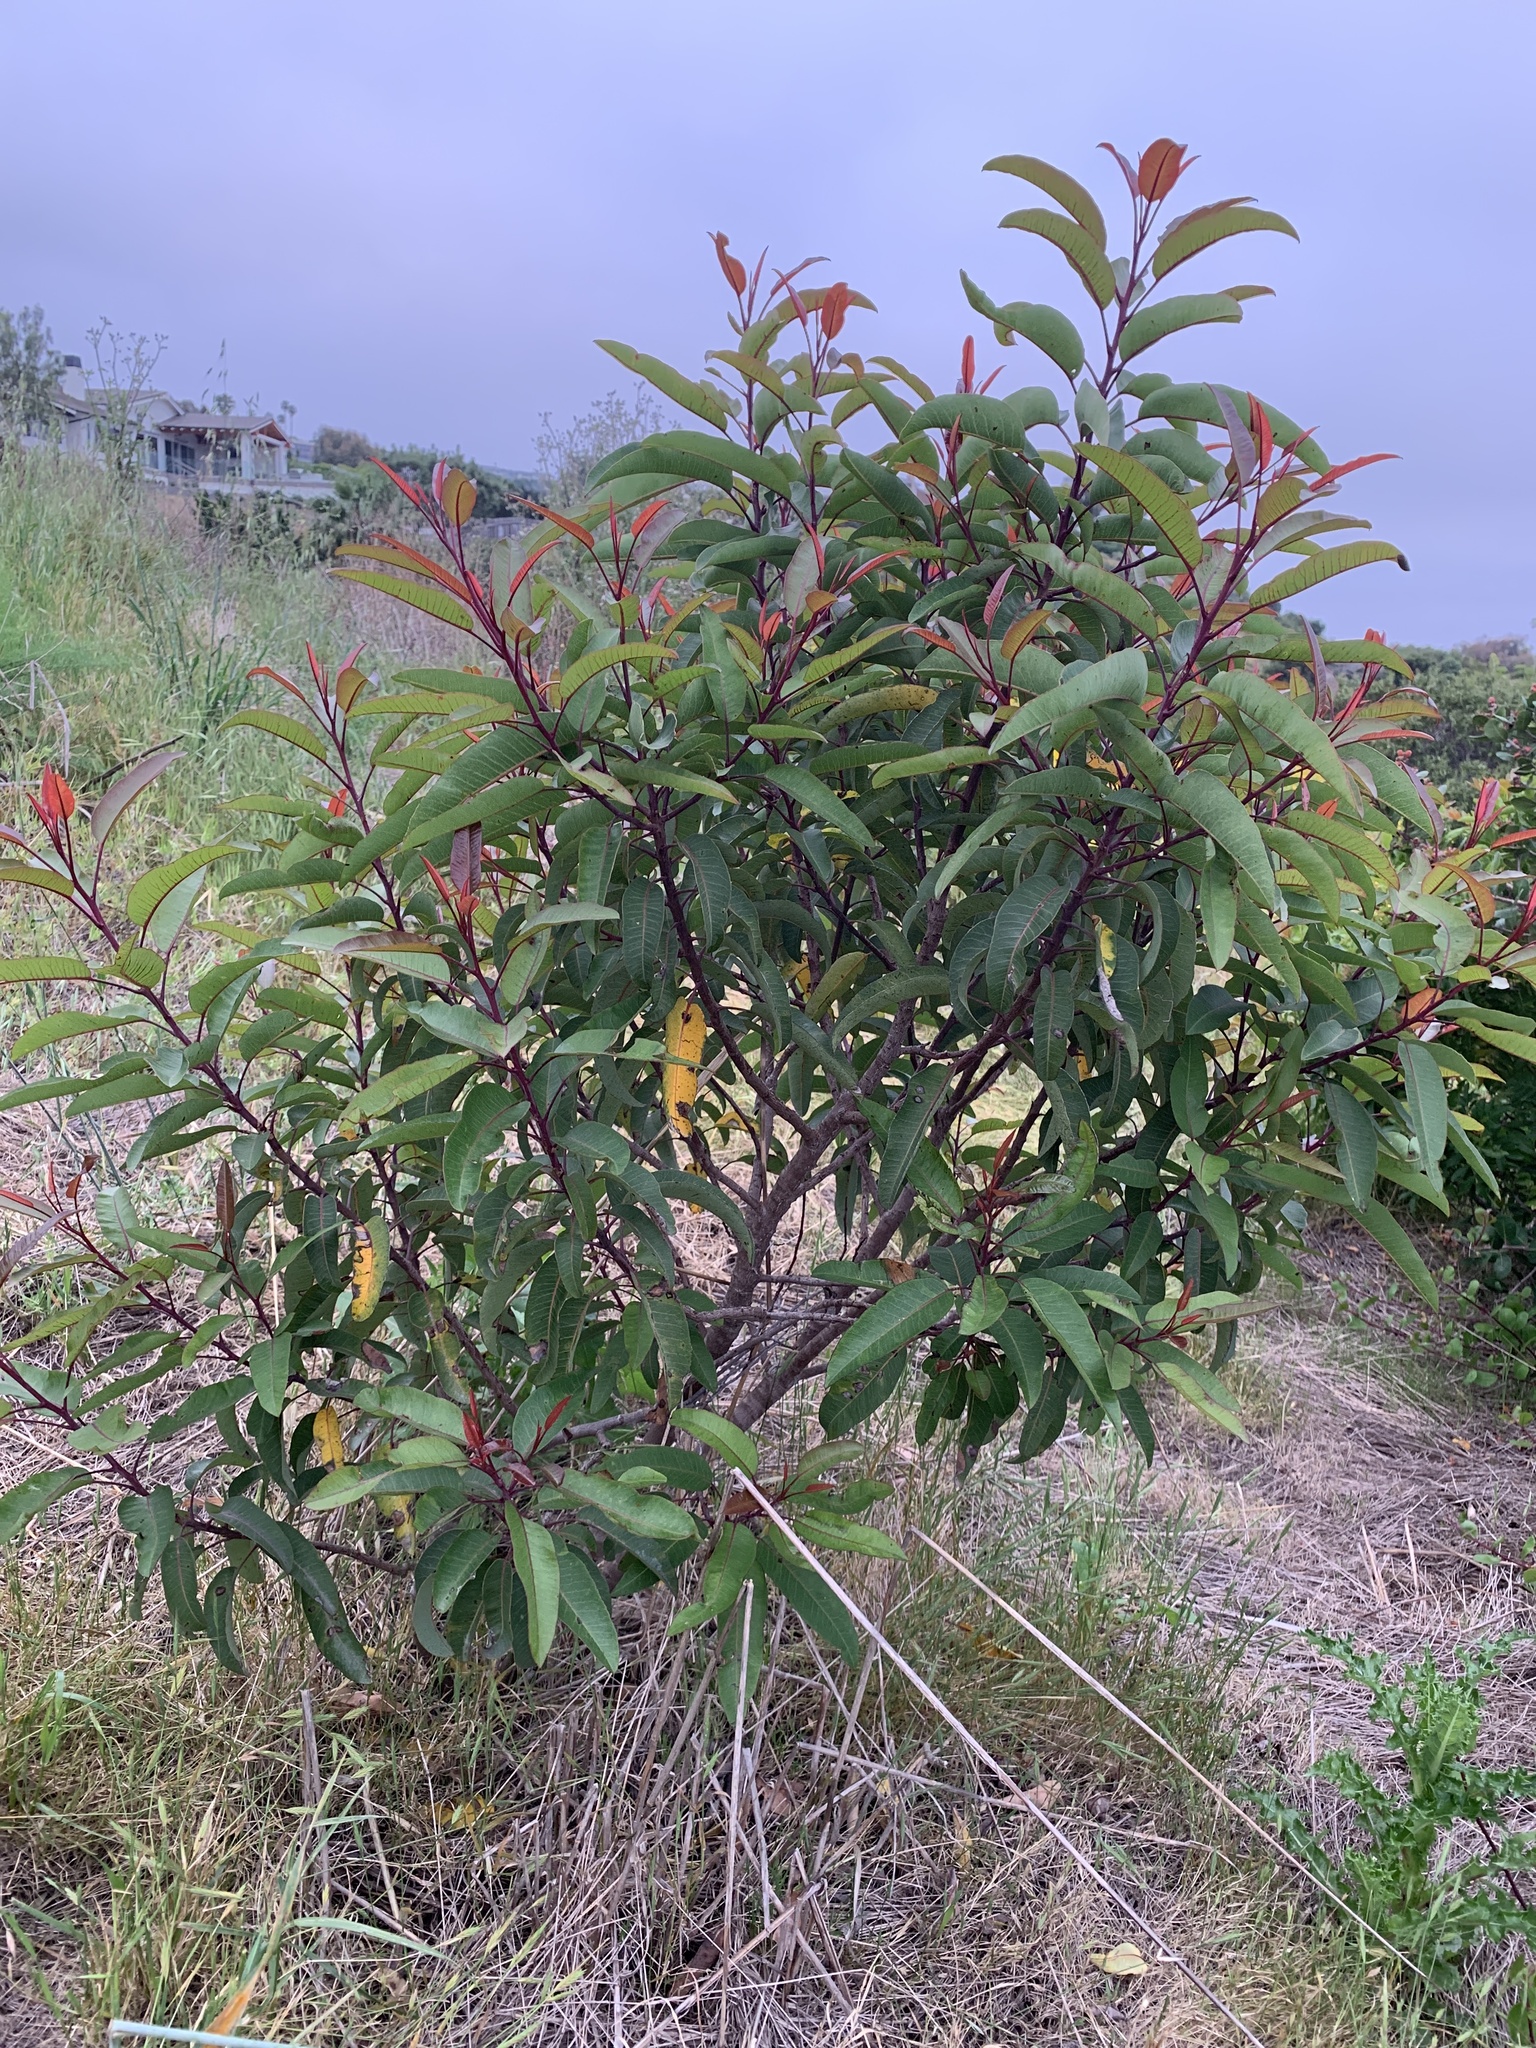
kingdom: Plantae
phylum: Tracheophyta
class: Magnoliopsida
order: Sapindales
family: Anacardiaceae
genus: Malosma
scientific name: Malosma laurina
